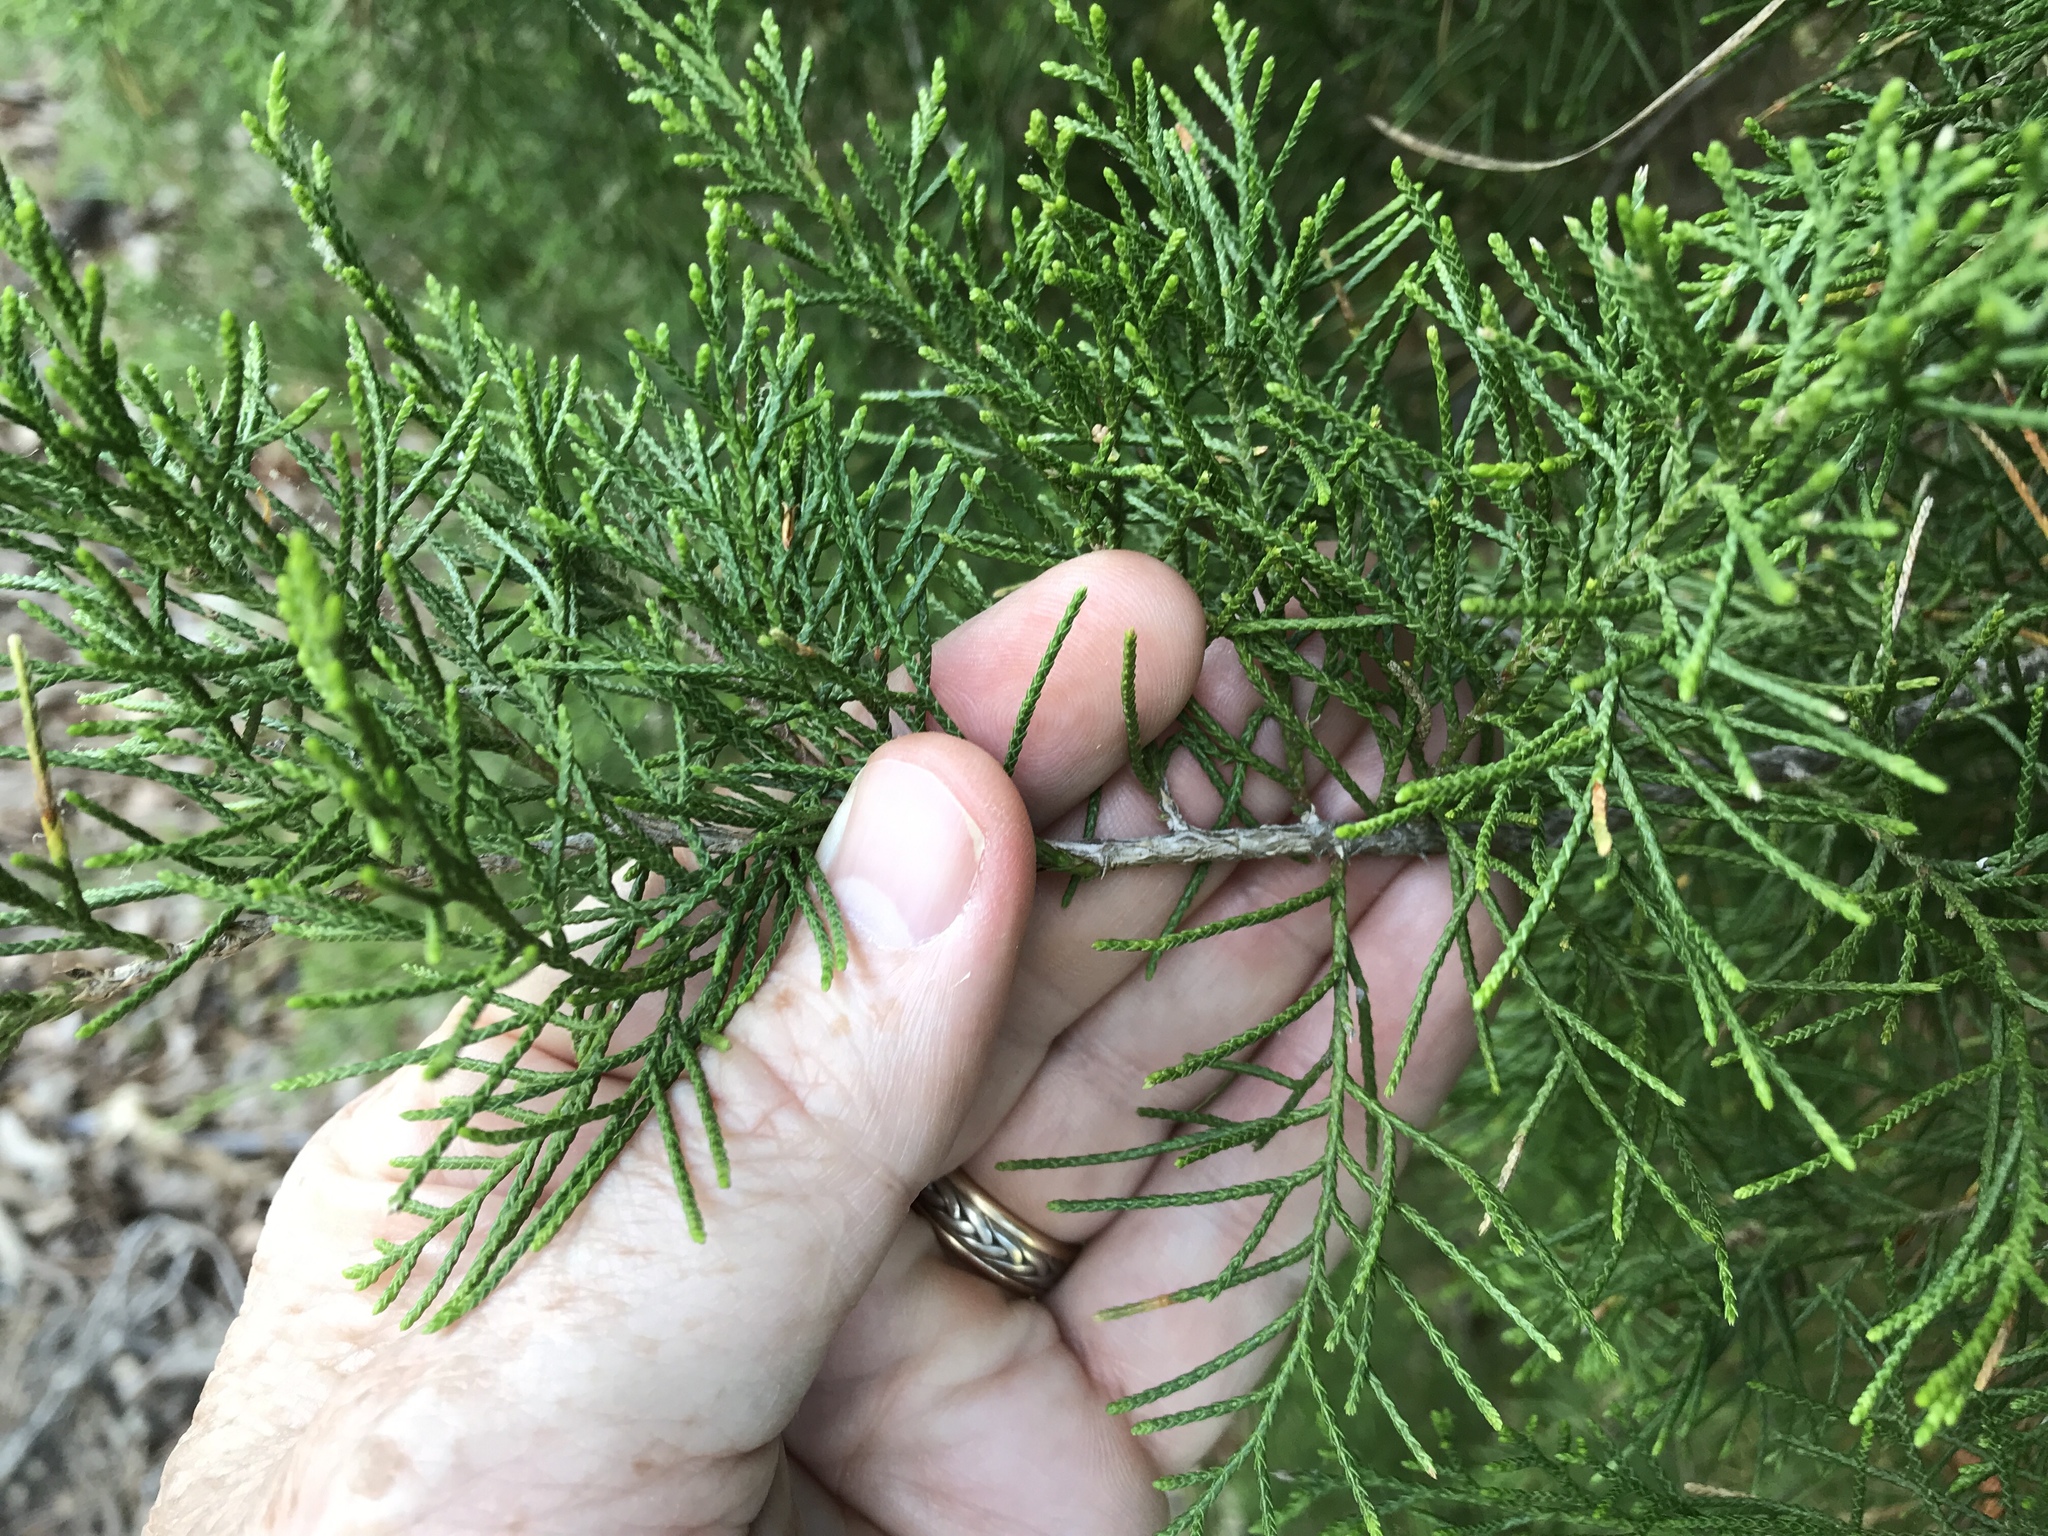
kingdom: Plantae
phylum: Tracheophyta
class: Pinopsida
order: Pinales
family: Cupressaceae
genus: Juniperus
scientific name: Juniperus virginiana
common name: Red juniper
